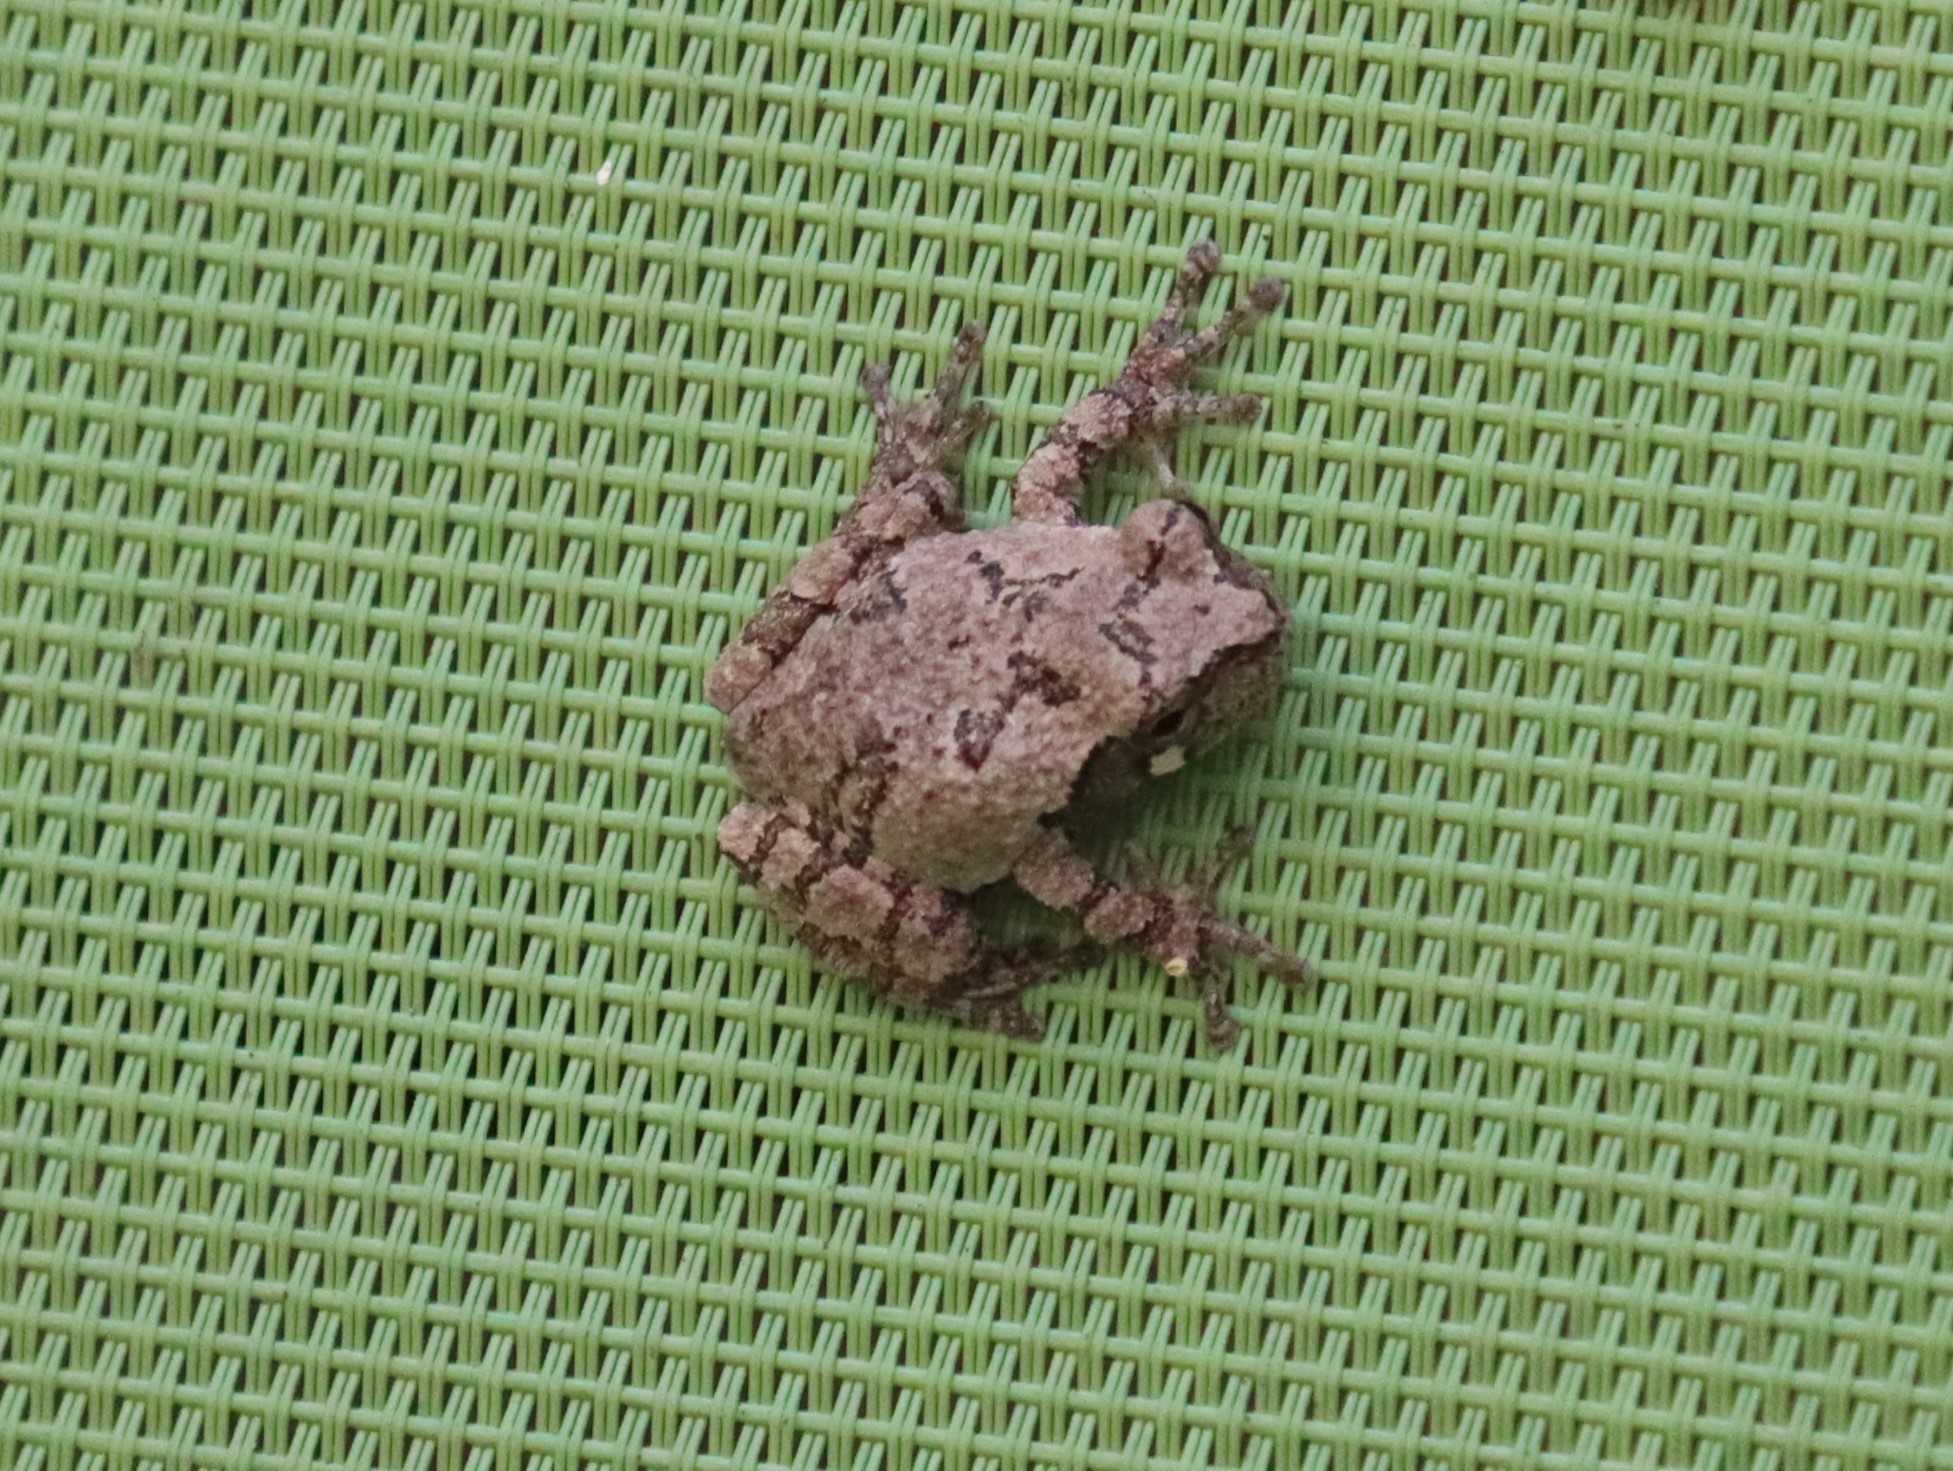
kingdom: Animalia
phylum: Chordata
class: Amphibia
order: Anura
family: Hylidae
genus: Hyla
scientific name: Hyla
